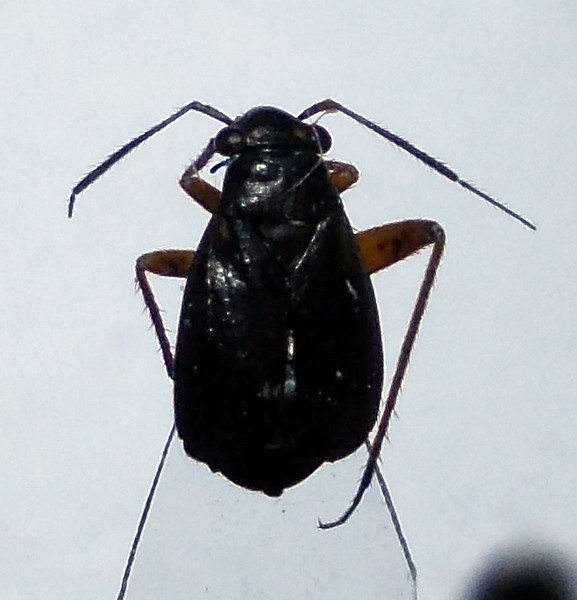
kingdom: Animalia
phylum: Arthropoda
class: Insecta
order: Hemiptera
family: Miridae
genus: Orthocephalus
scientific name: Orthocephalus vittipennis
